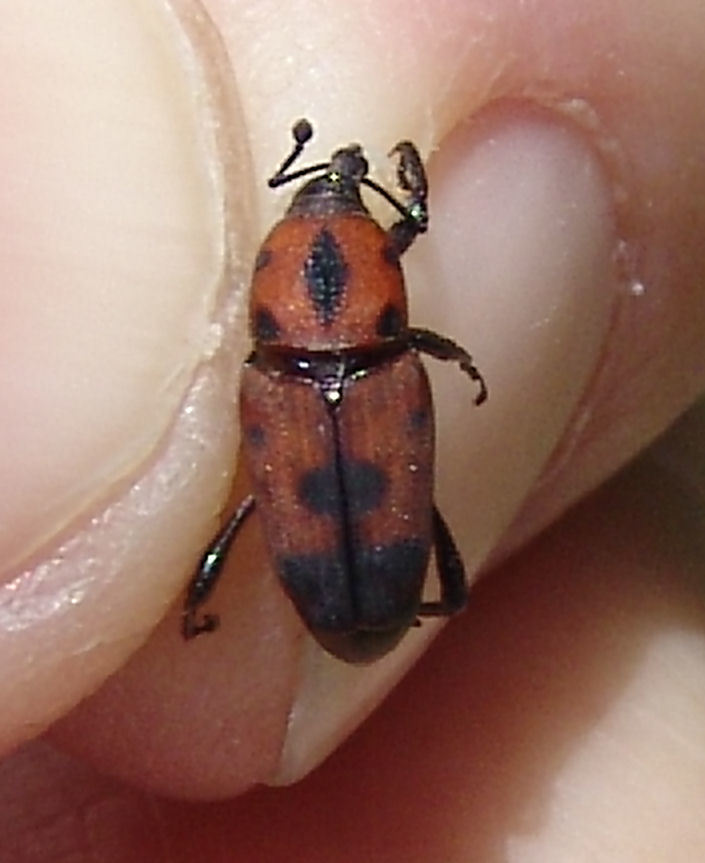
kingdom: Animalia
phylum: Arthropoda
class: Insecta
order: Coleoptera
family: Dryophthoridae
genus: Rhodobaenus
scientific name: Rhodobaenus quinquepunctatus
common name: Cocklebur weevil
